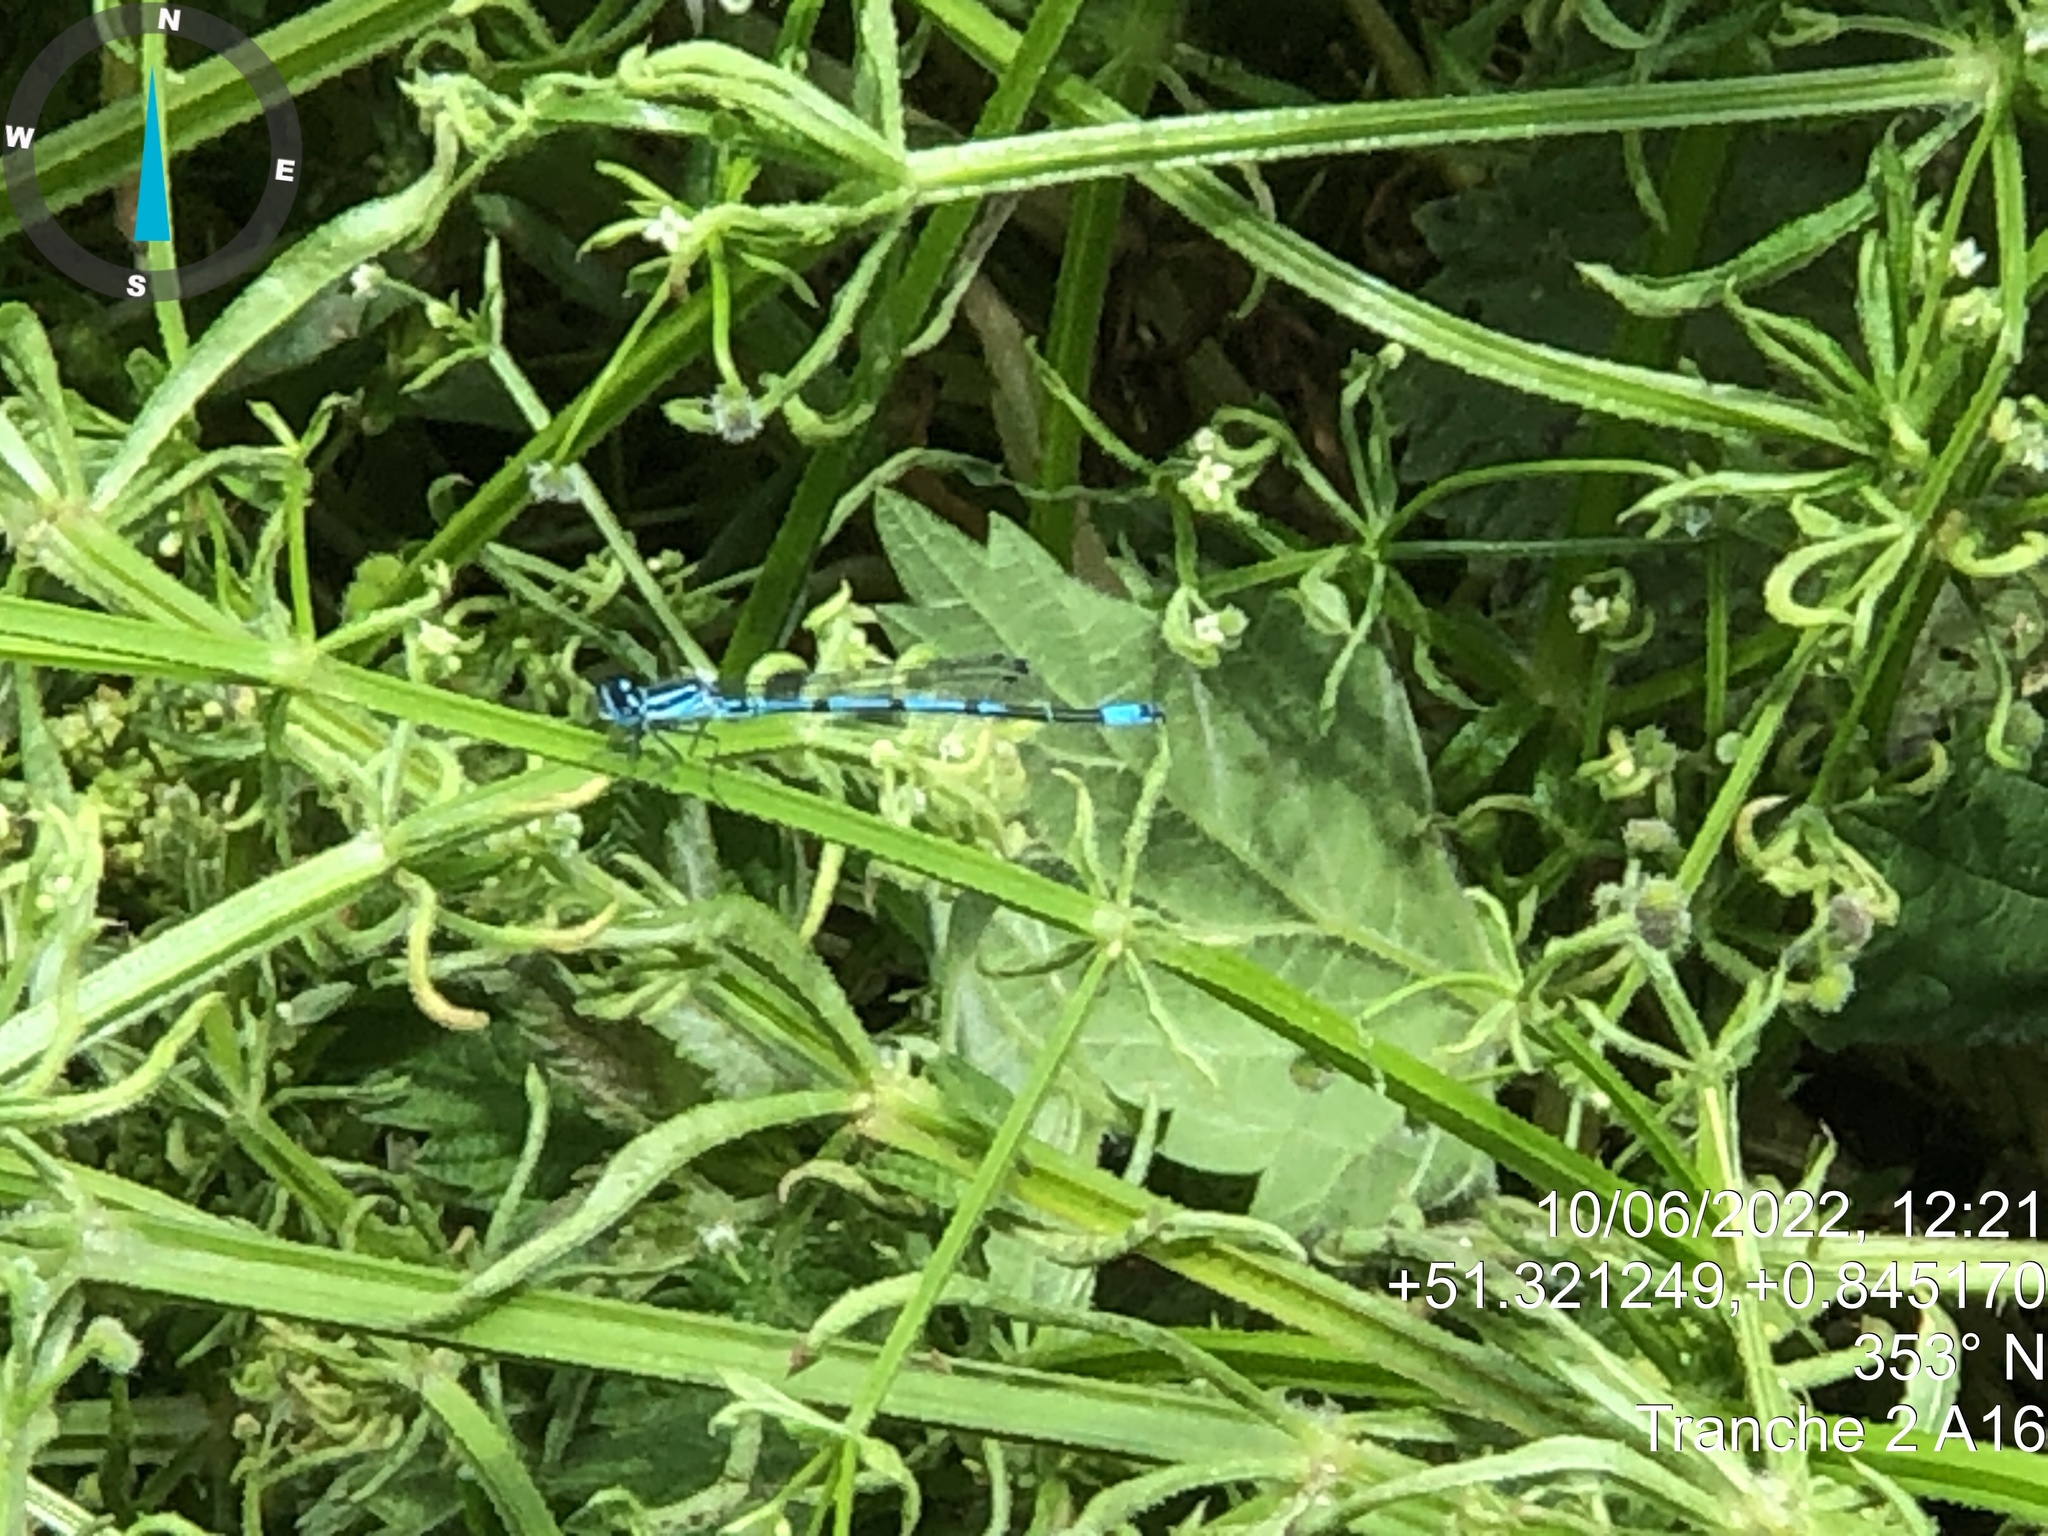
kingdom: Animalia
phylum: Arthropoda
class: Insecta
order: Odonata
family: Coenagrionidae
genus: Coenagrion
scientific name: Coenagrion puella
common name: Azure damselfly
